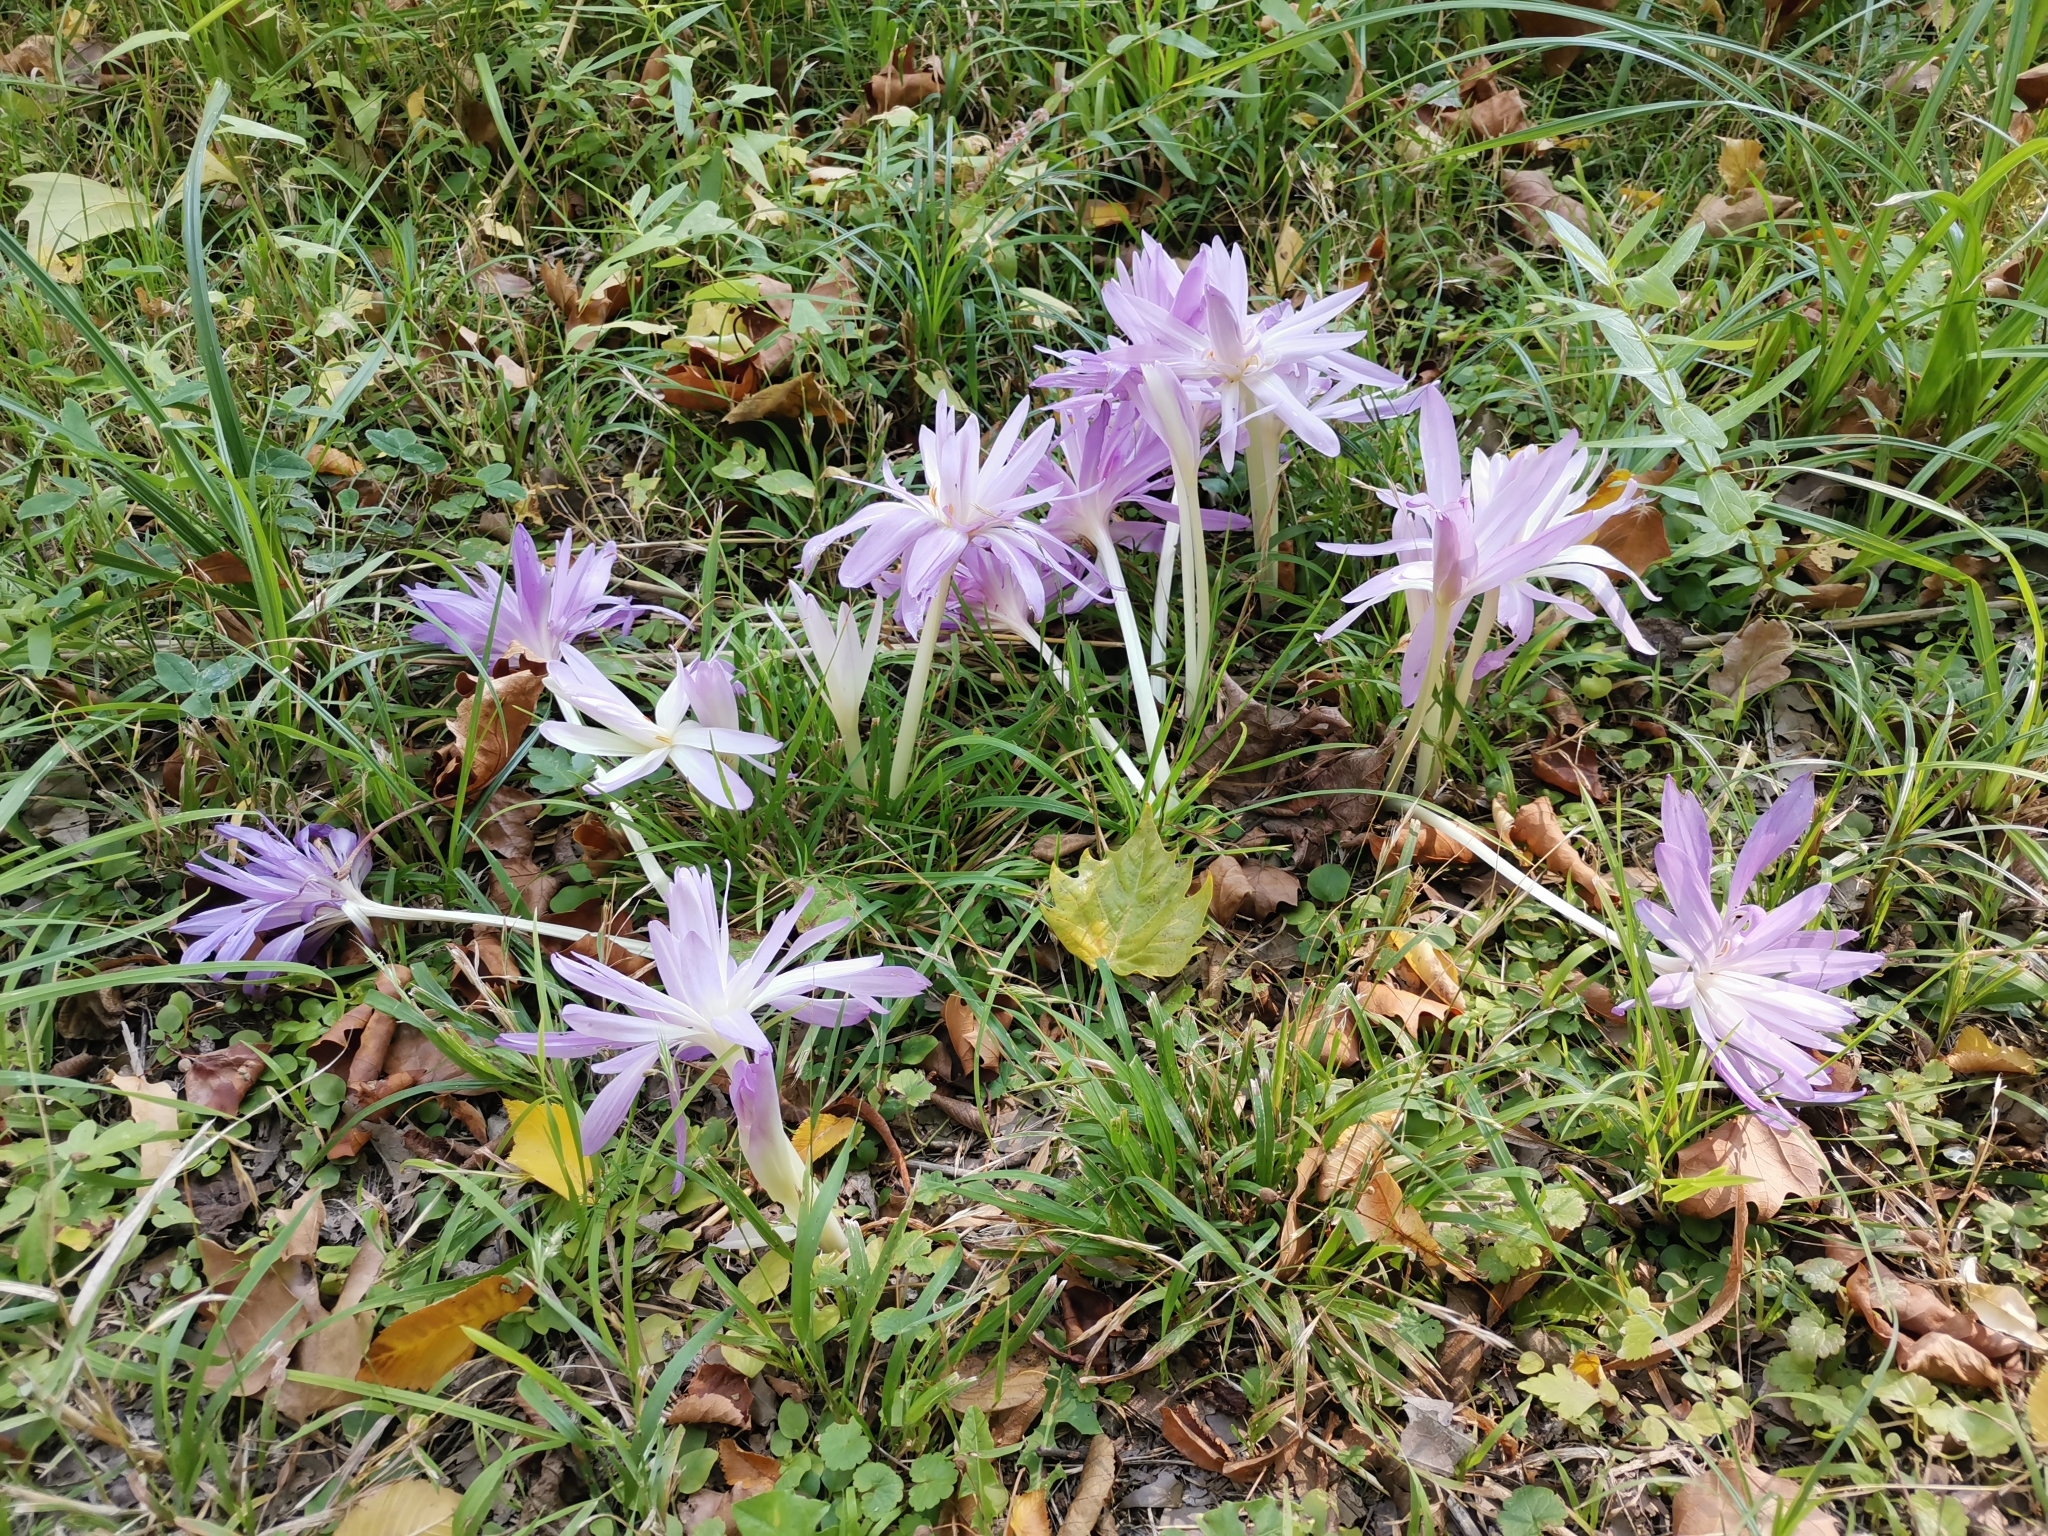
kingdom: Plantae
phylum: Tracheophyta
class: Liliopsida
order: Liliales
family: Colchicaceae
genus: Colchicum
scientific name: Colchicum autumnale
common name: Autumn crocus
